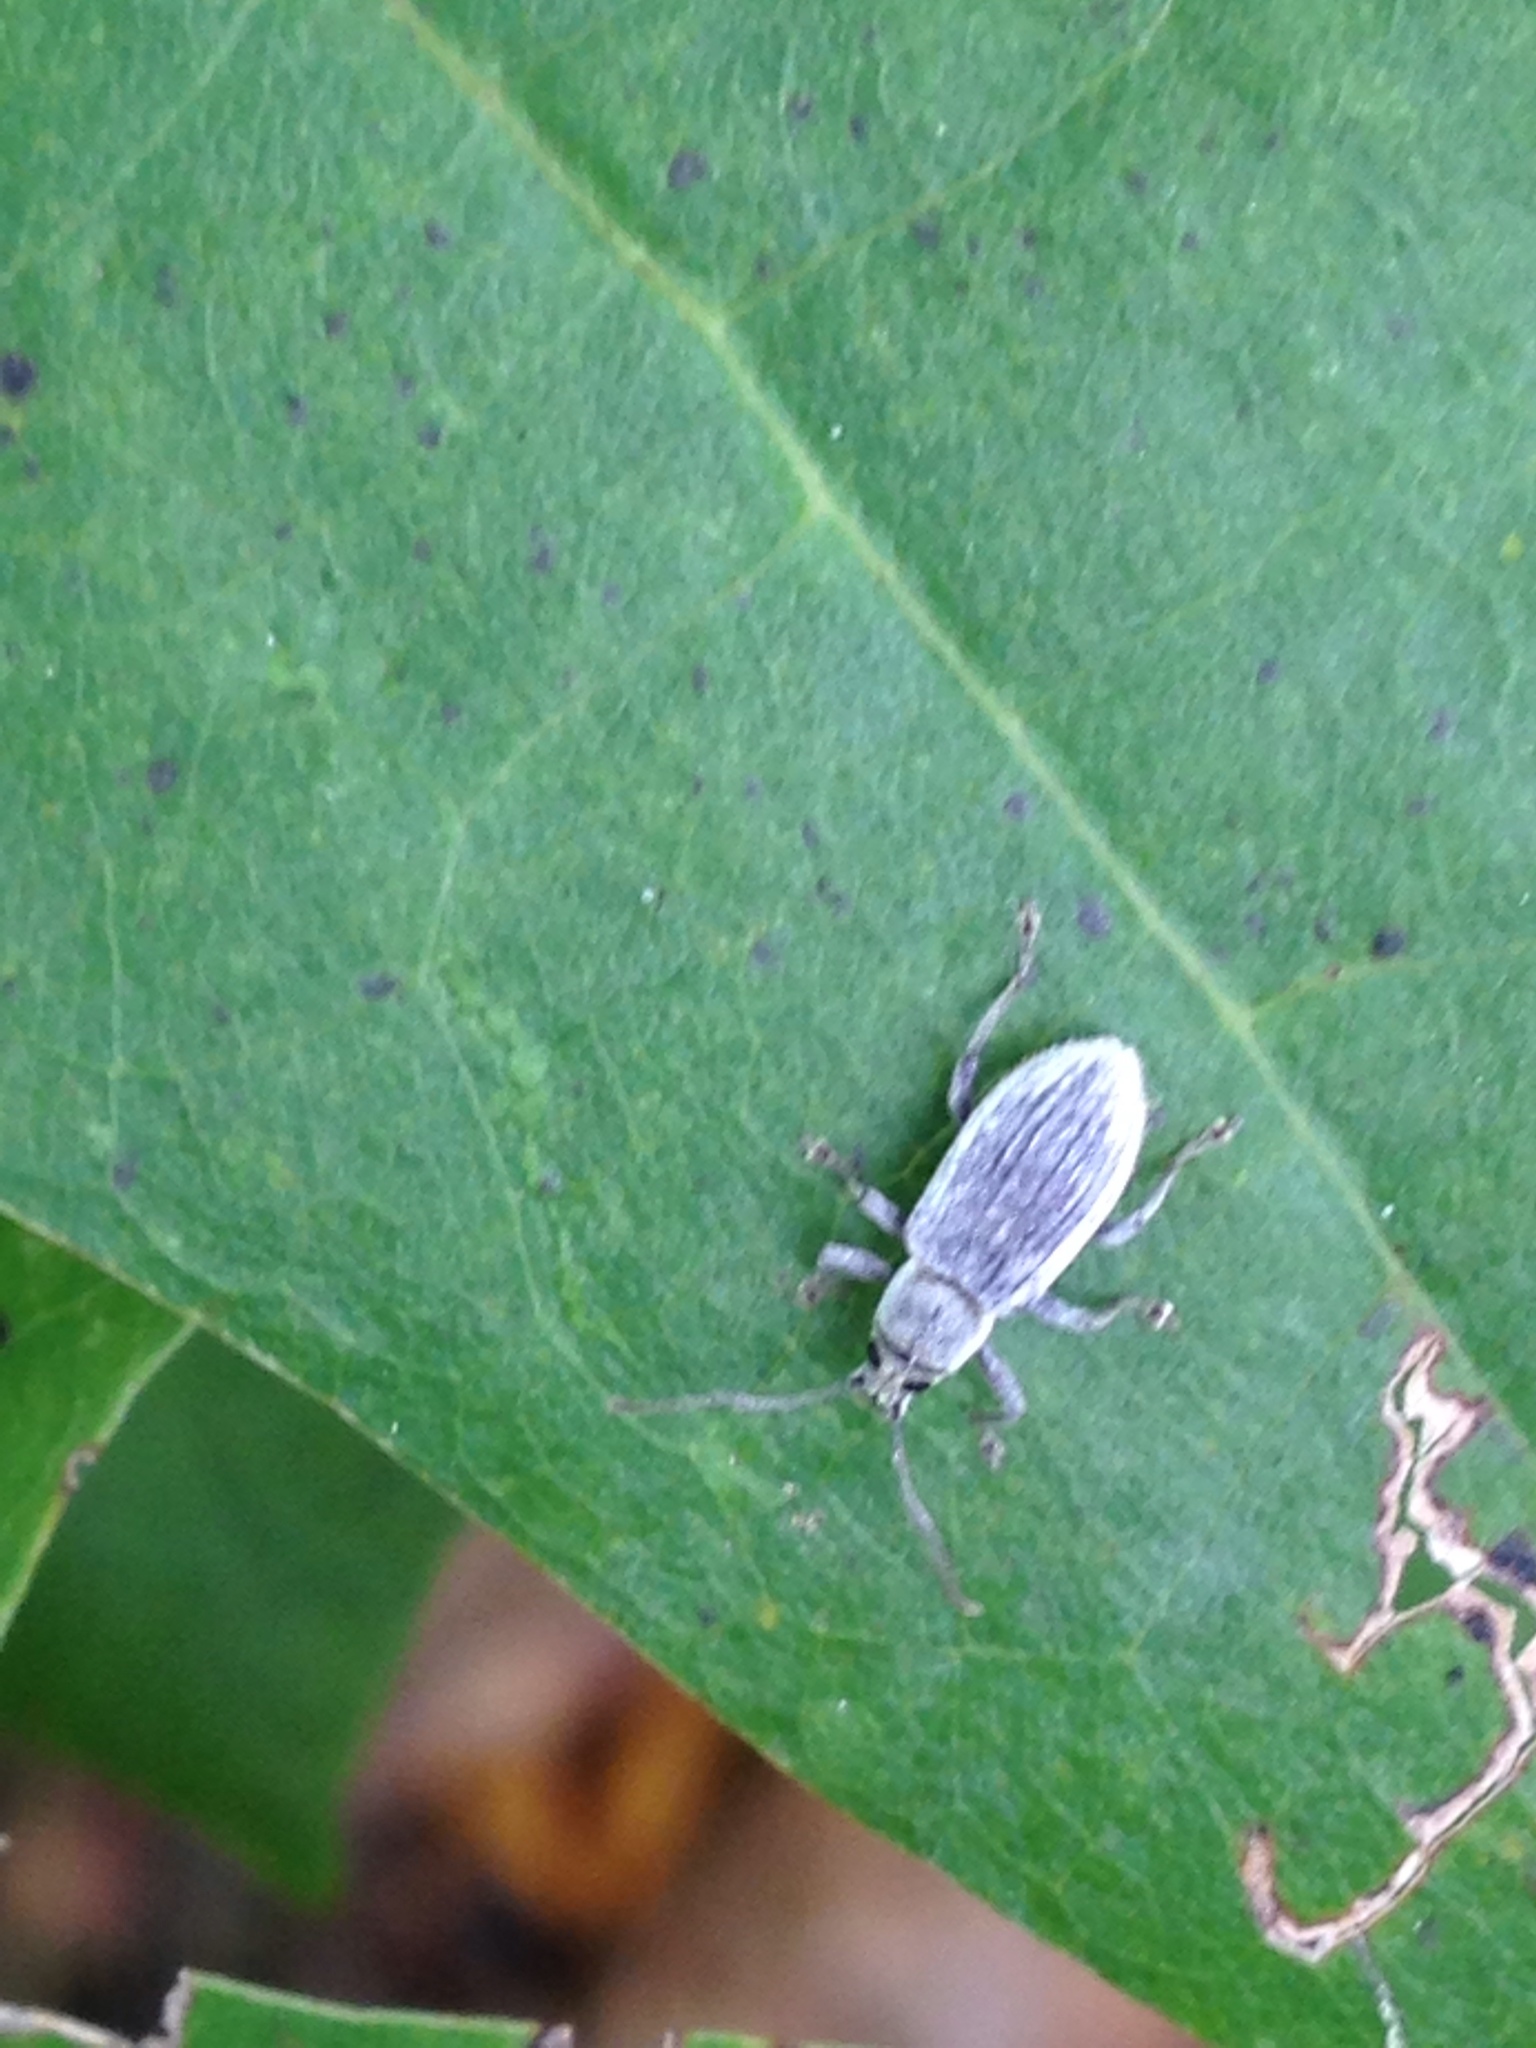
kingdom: Animalia
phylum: Arthropoda
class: Insecta
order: Coleoptera
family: Curculionidae
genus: Cyrtepistomus
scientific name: Cyrtepistomus castaneus
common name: Weevil
